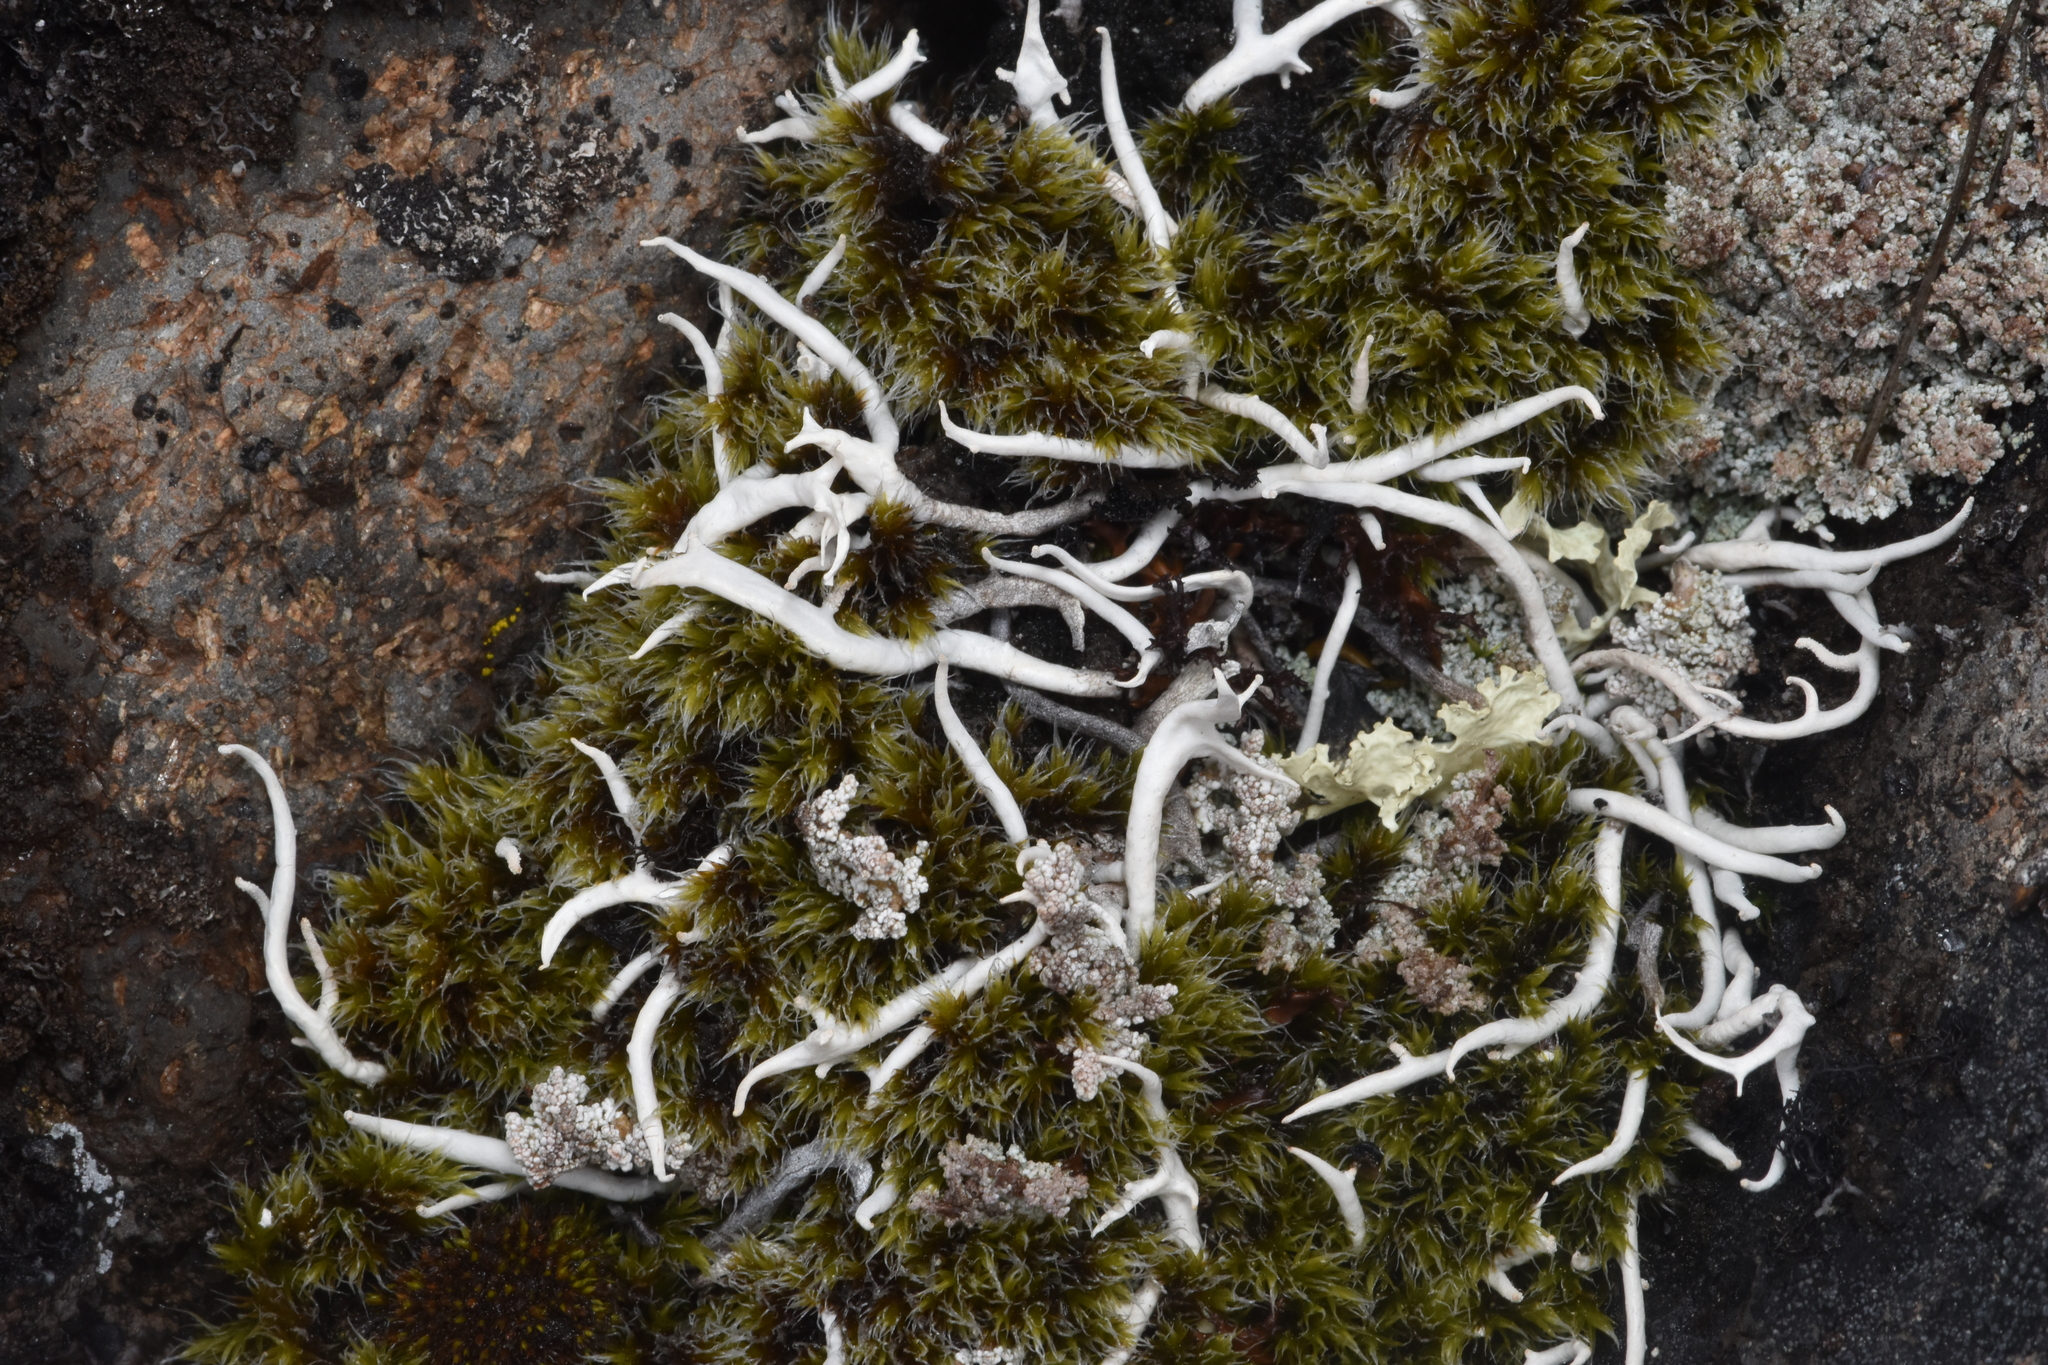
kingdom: Fungi
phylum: Ascomycota
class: Lecanoromycetes
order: Pertusariales
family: Icmadophilaceae
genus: Thamnolia
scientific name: Thamnolia vermicularis
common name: Whiteworm lichen
